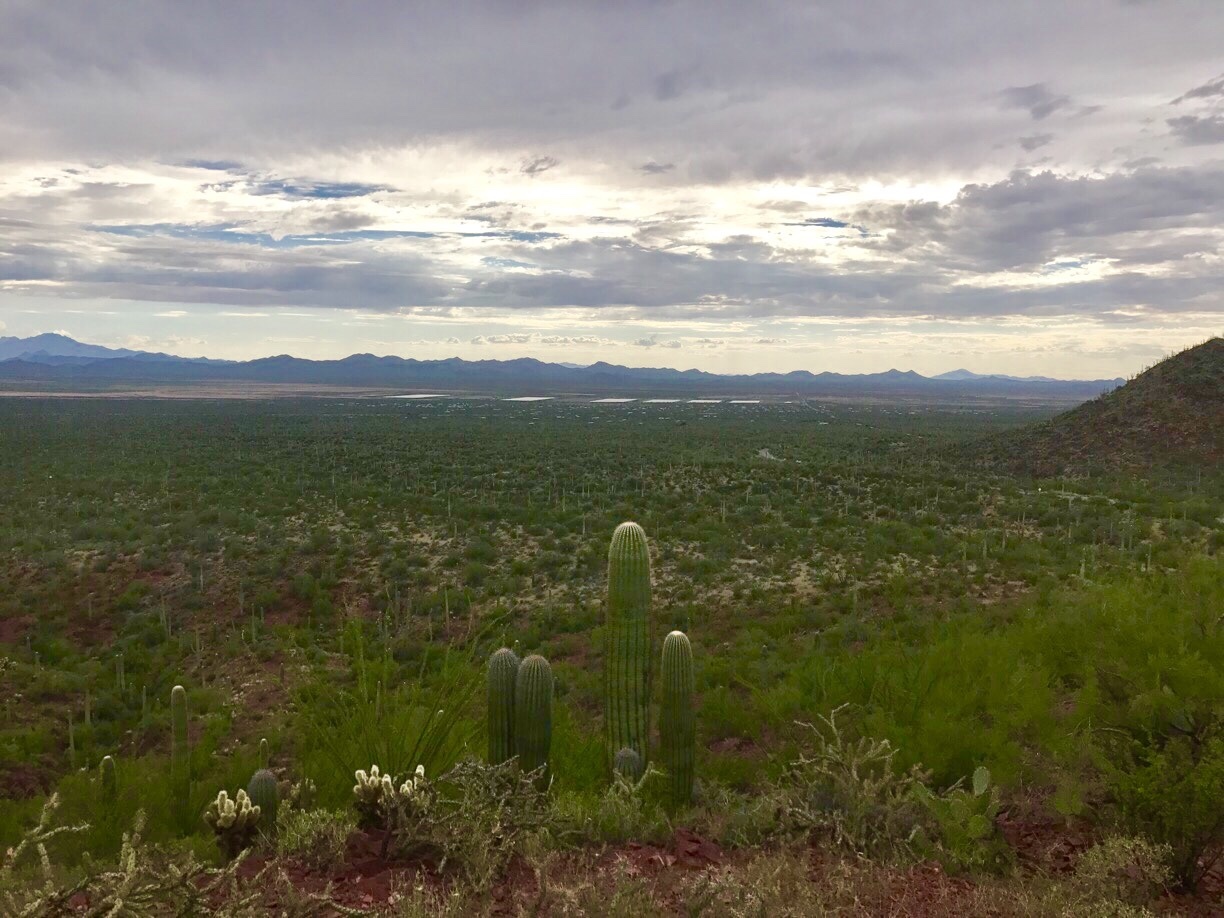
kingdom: Plantae
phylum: Tracheophyta
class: Magnoliopsida
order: Caryophyllales
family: Cactaceae
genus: Carnegiea
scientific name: Carnegiea gigantea
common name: Saguaro
